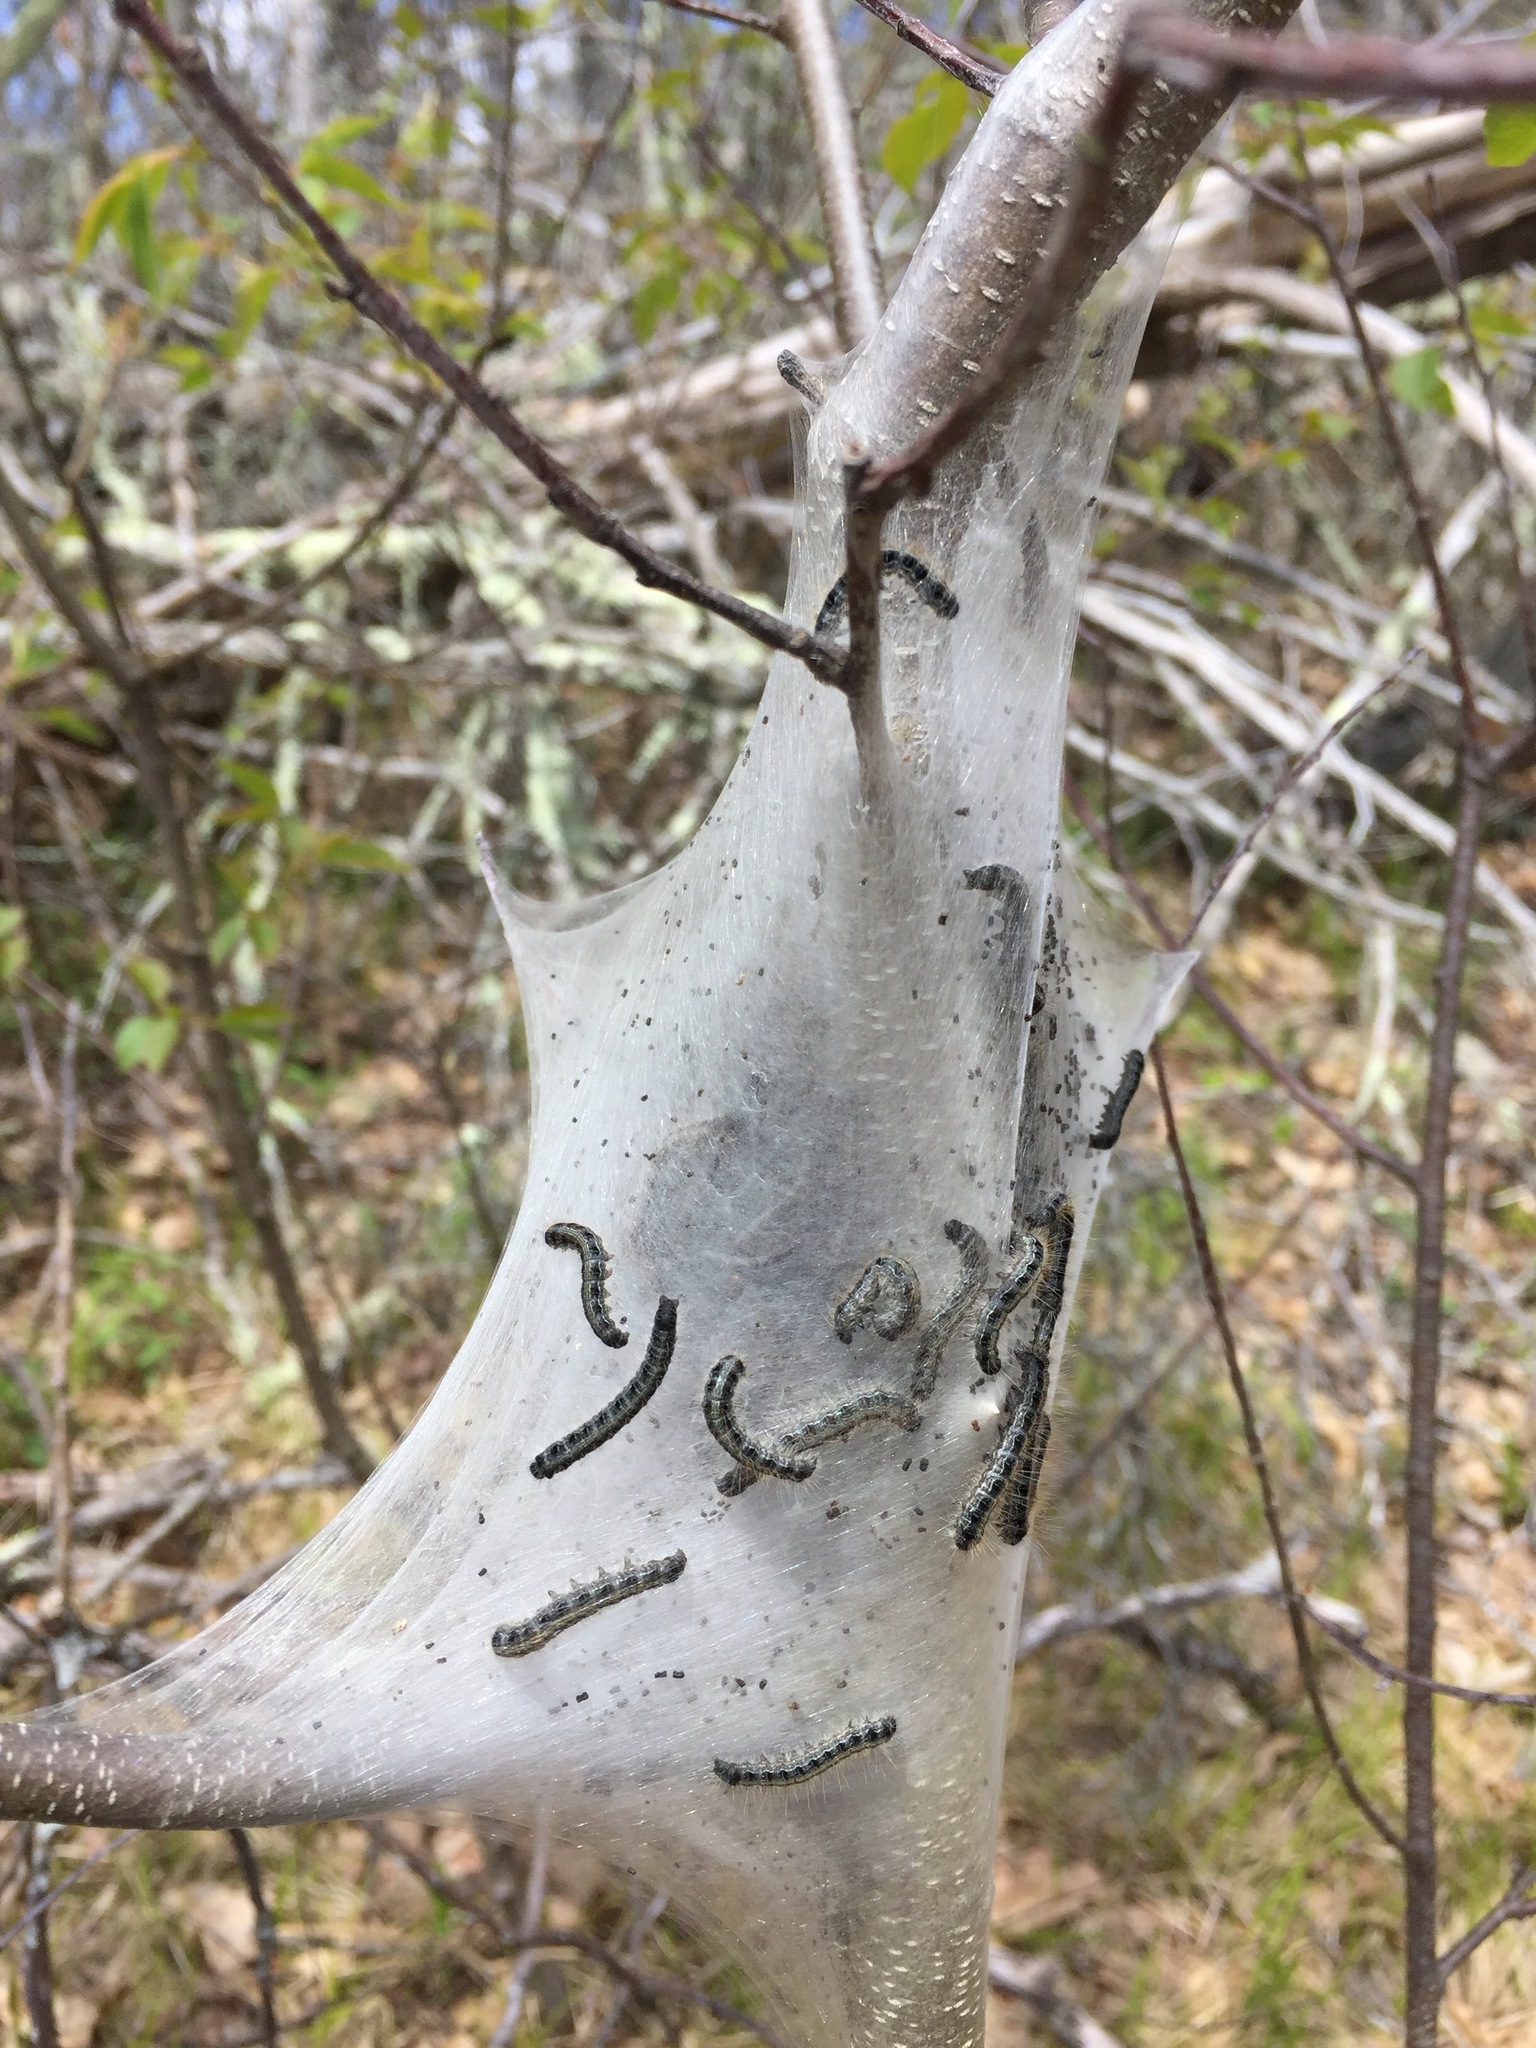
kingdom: Animalia
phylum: Arthropoda
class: Insecta
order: Lepidoptera
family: Lasiocampidae
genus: Malacosoma
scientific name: Malacosoma americana
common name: Eastern tent caterpillar moth
